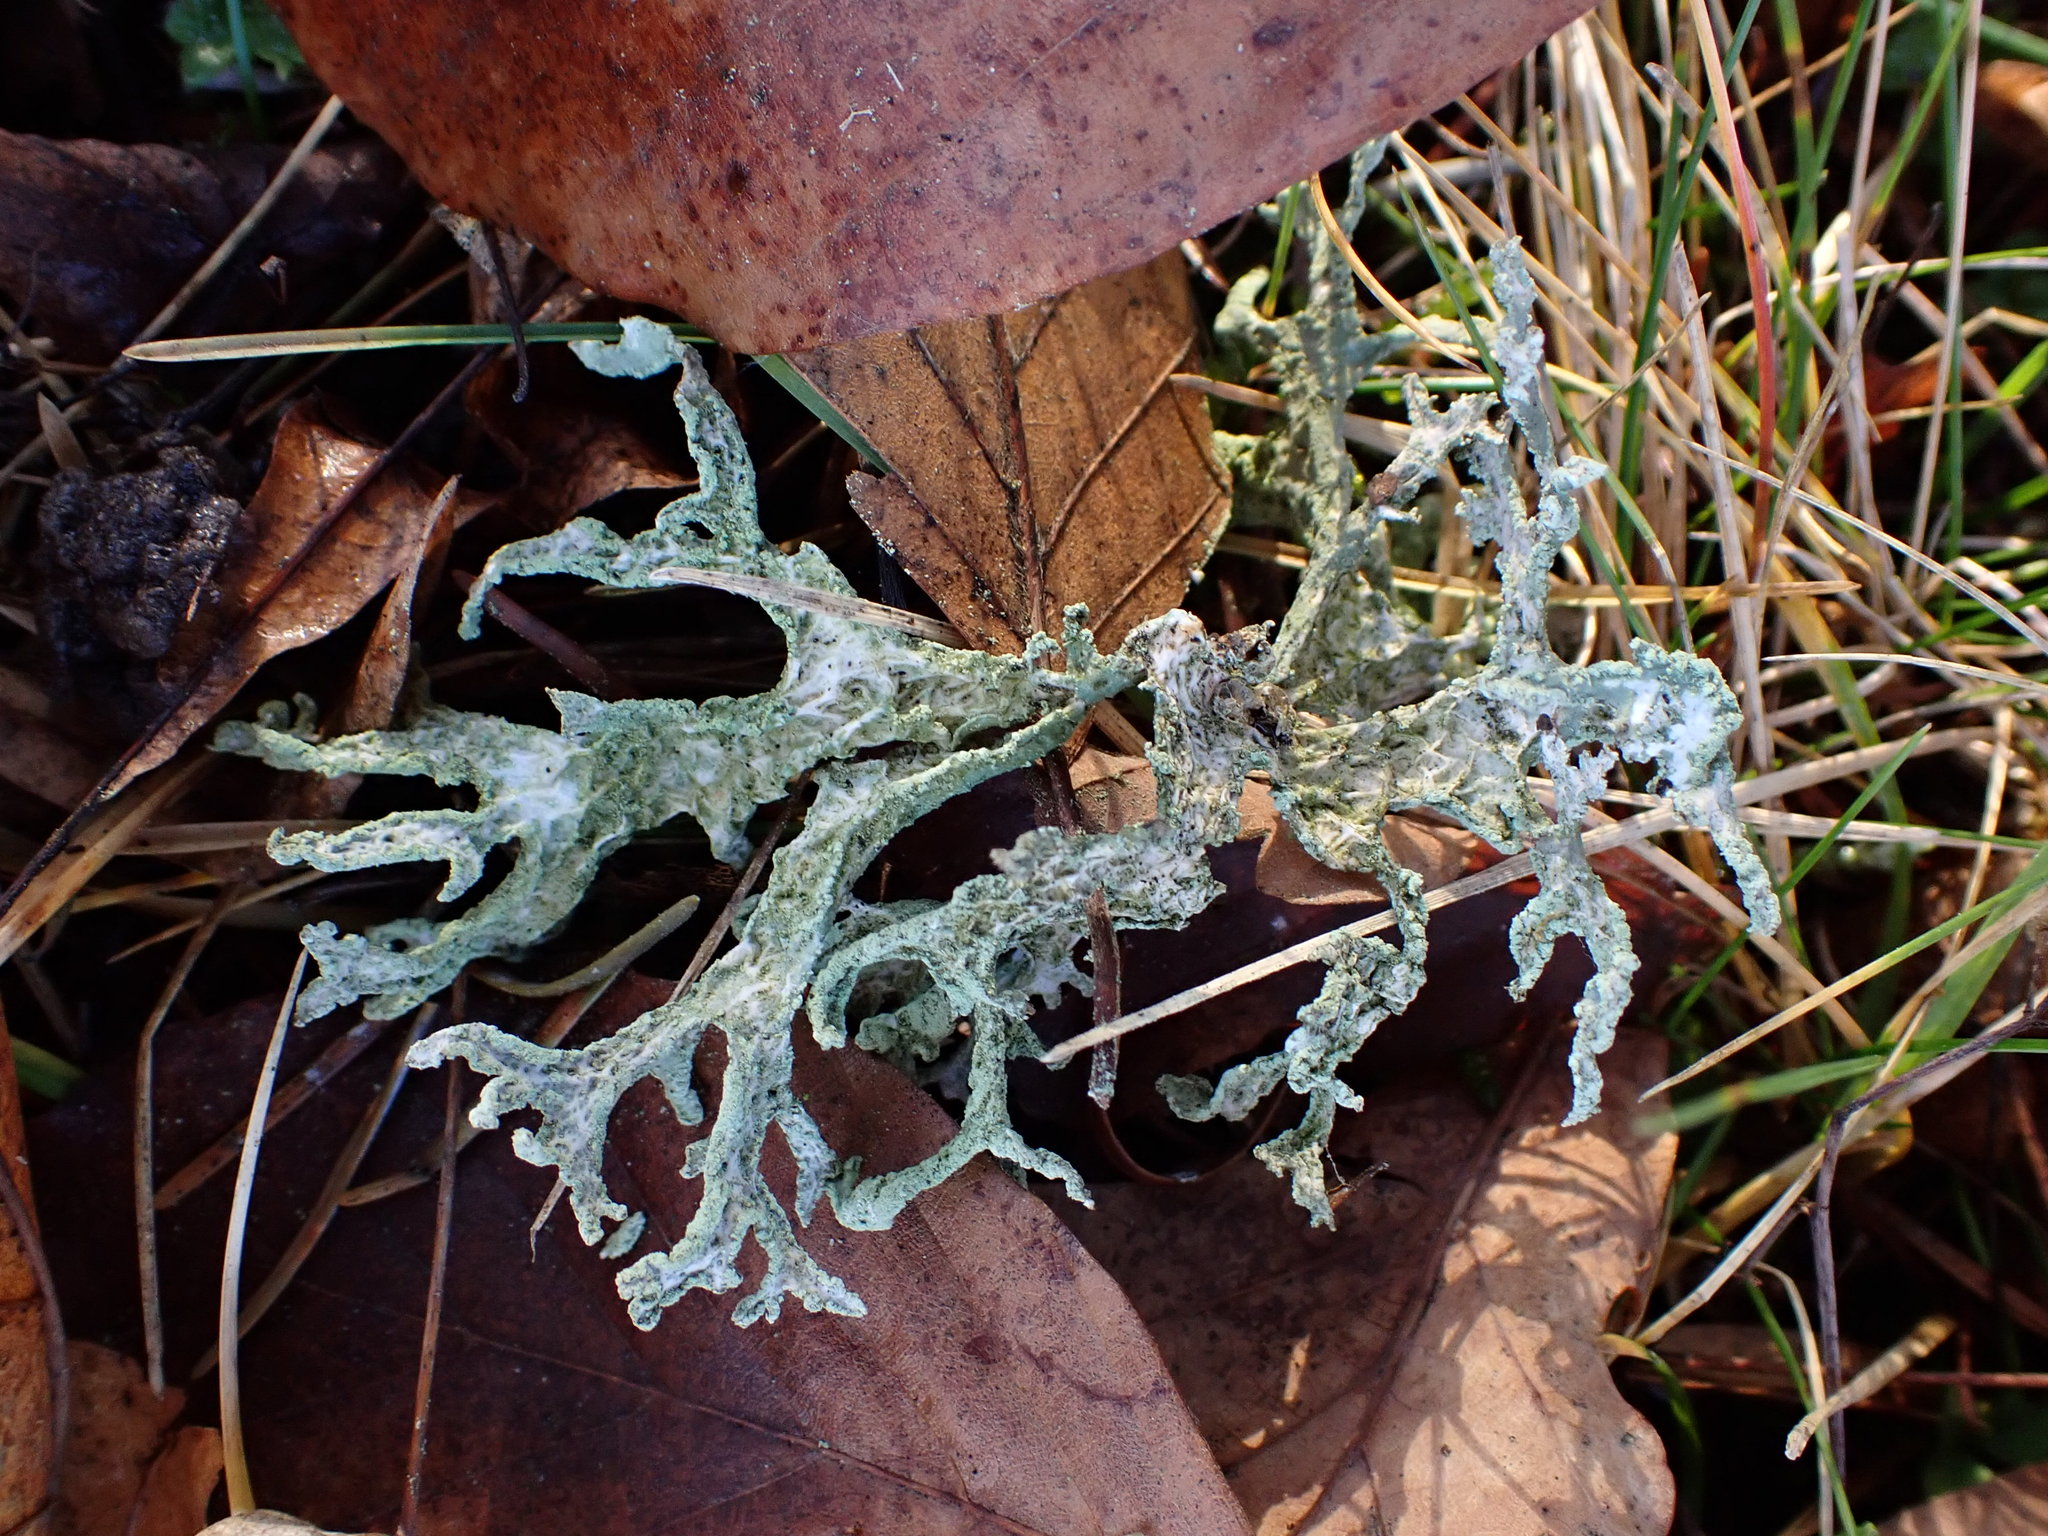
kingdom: Fungi
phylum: Ascomycota
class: Lecanoromycetes
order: Lecanorales
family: Parmeliaceae
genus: Evernia
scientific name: Evernia prunastri
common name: Oak moss
